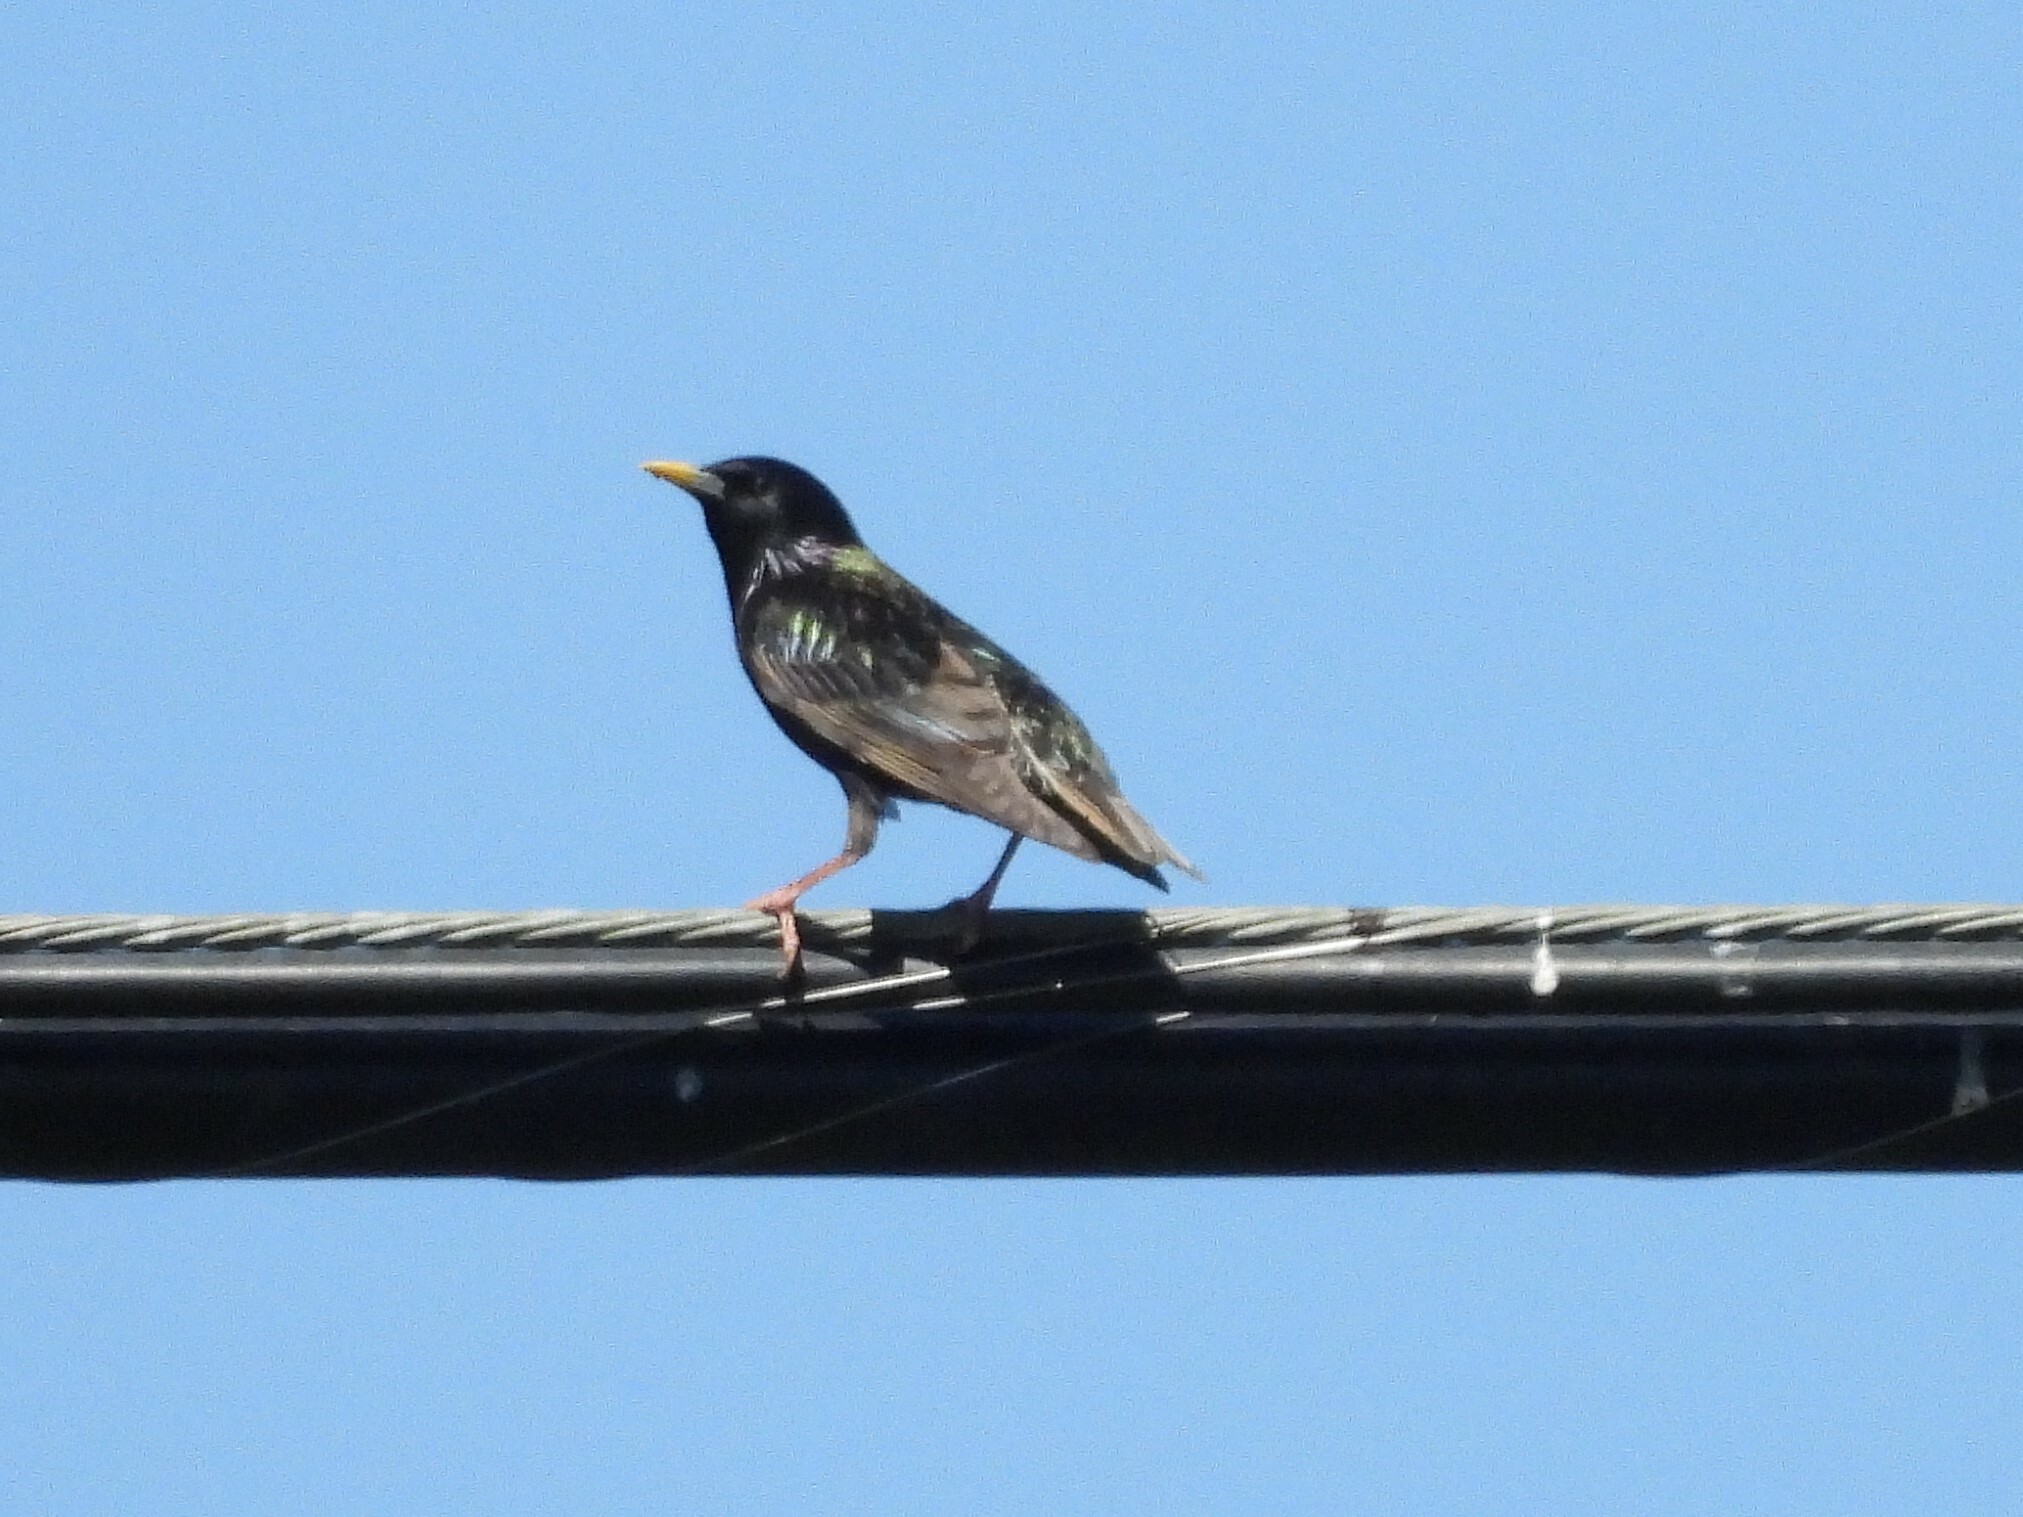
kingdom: Animalia
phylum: Chordata
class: Aves
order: Passeriformes
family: Sturnidae
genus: Sturnus
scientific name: Sturnus vulgaris
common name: Common starling
